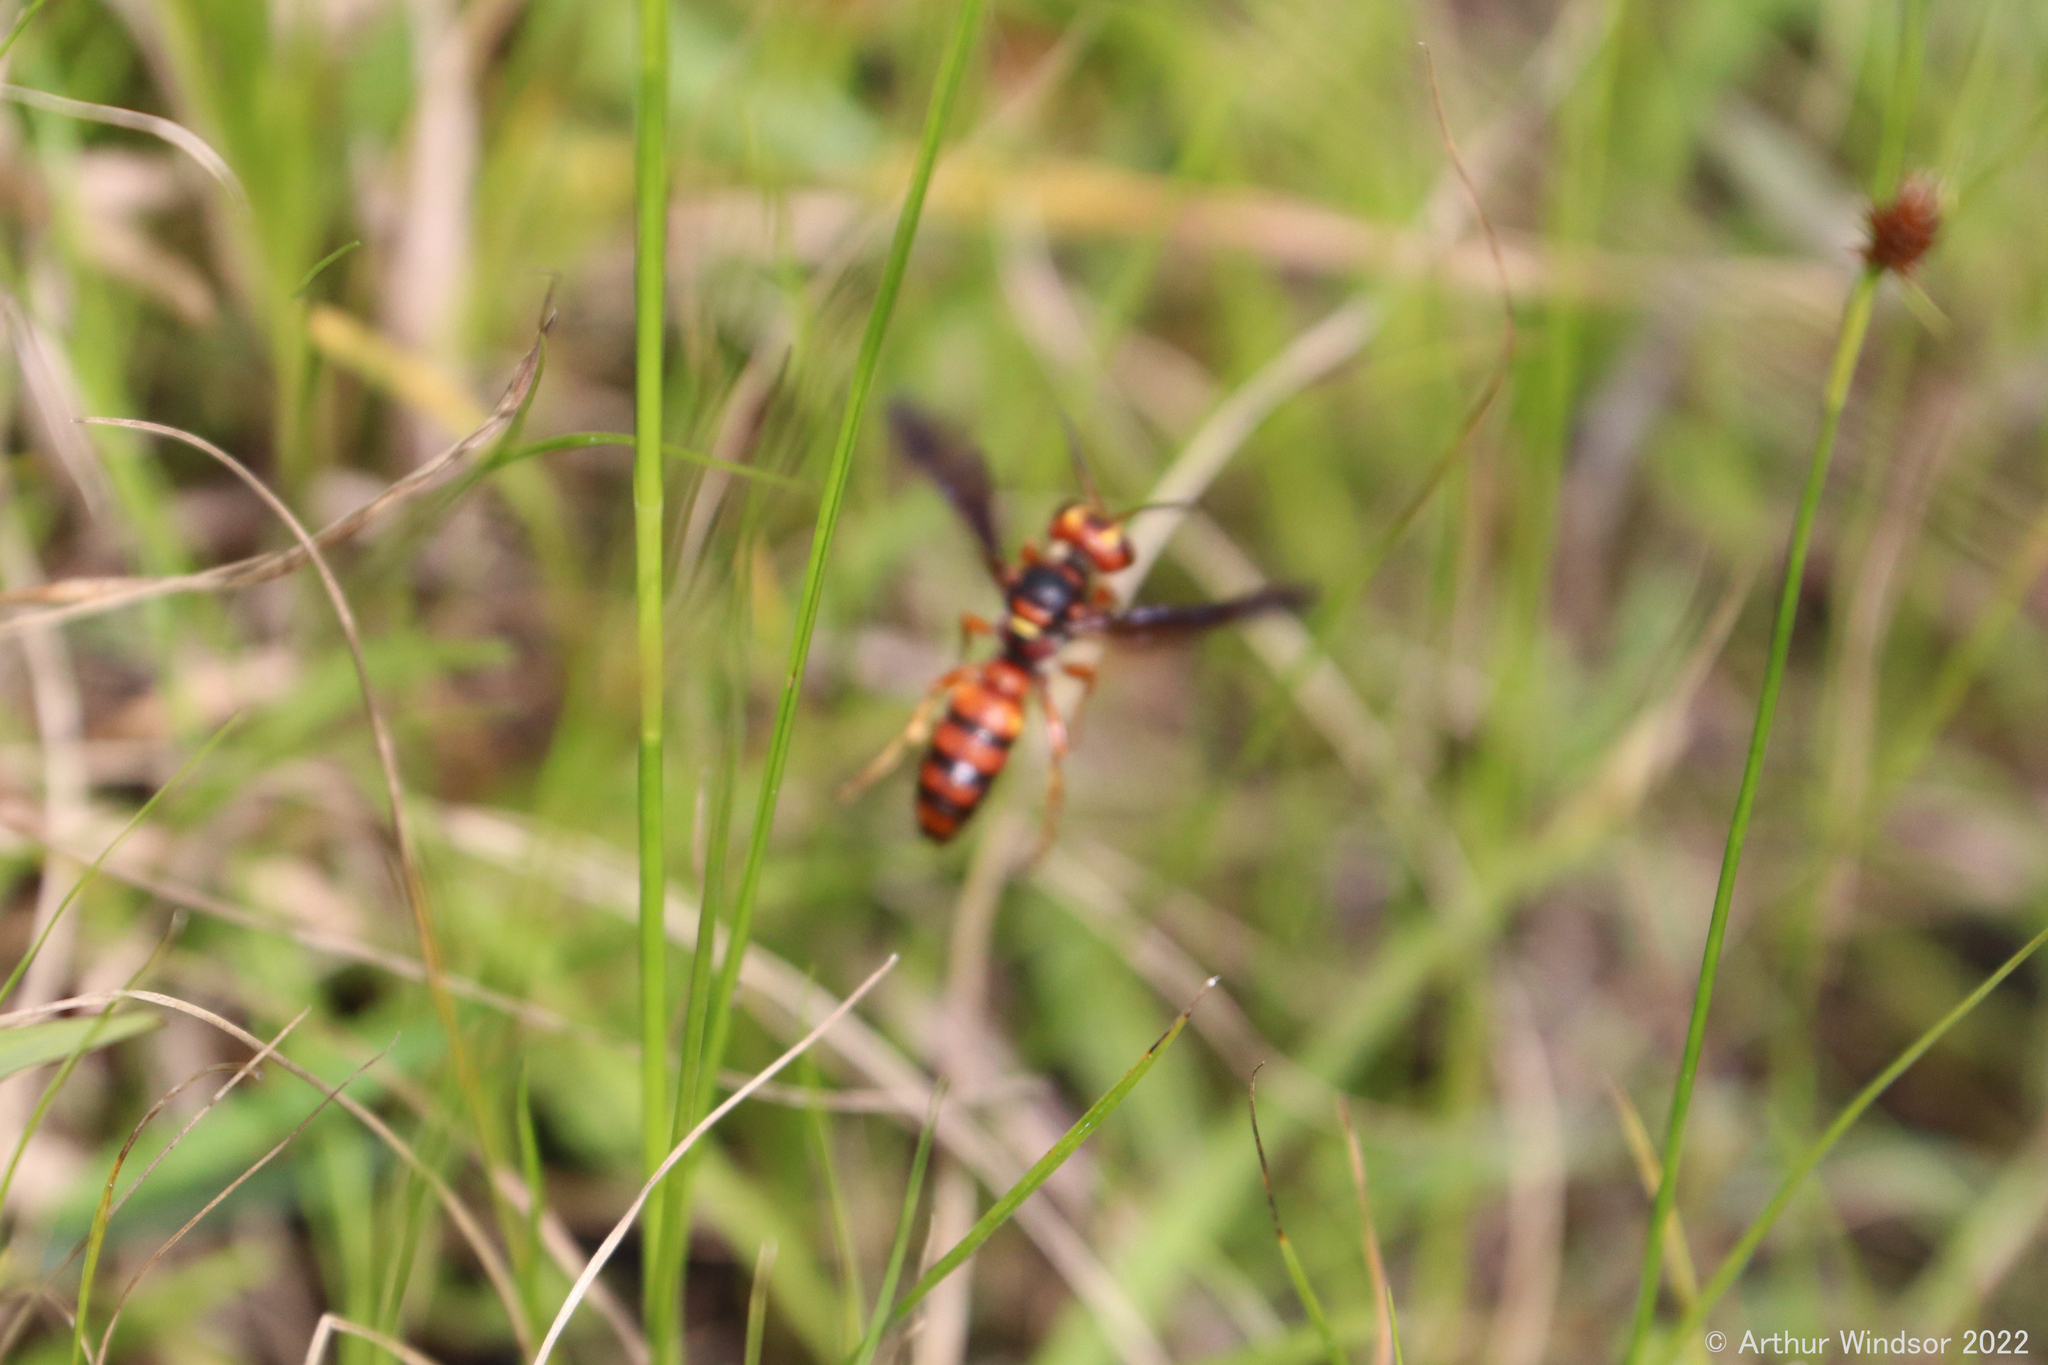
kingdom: Animalia
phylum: Arthropoda
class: Insecta
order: Hymenoptera
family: Crabronidae
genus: Cerceris
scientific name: Cerceris bicornuta
